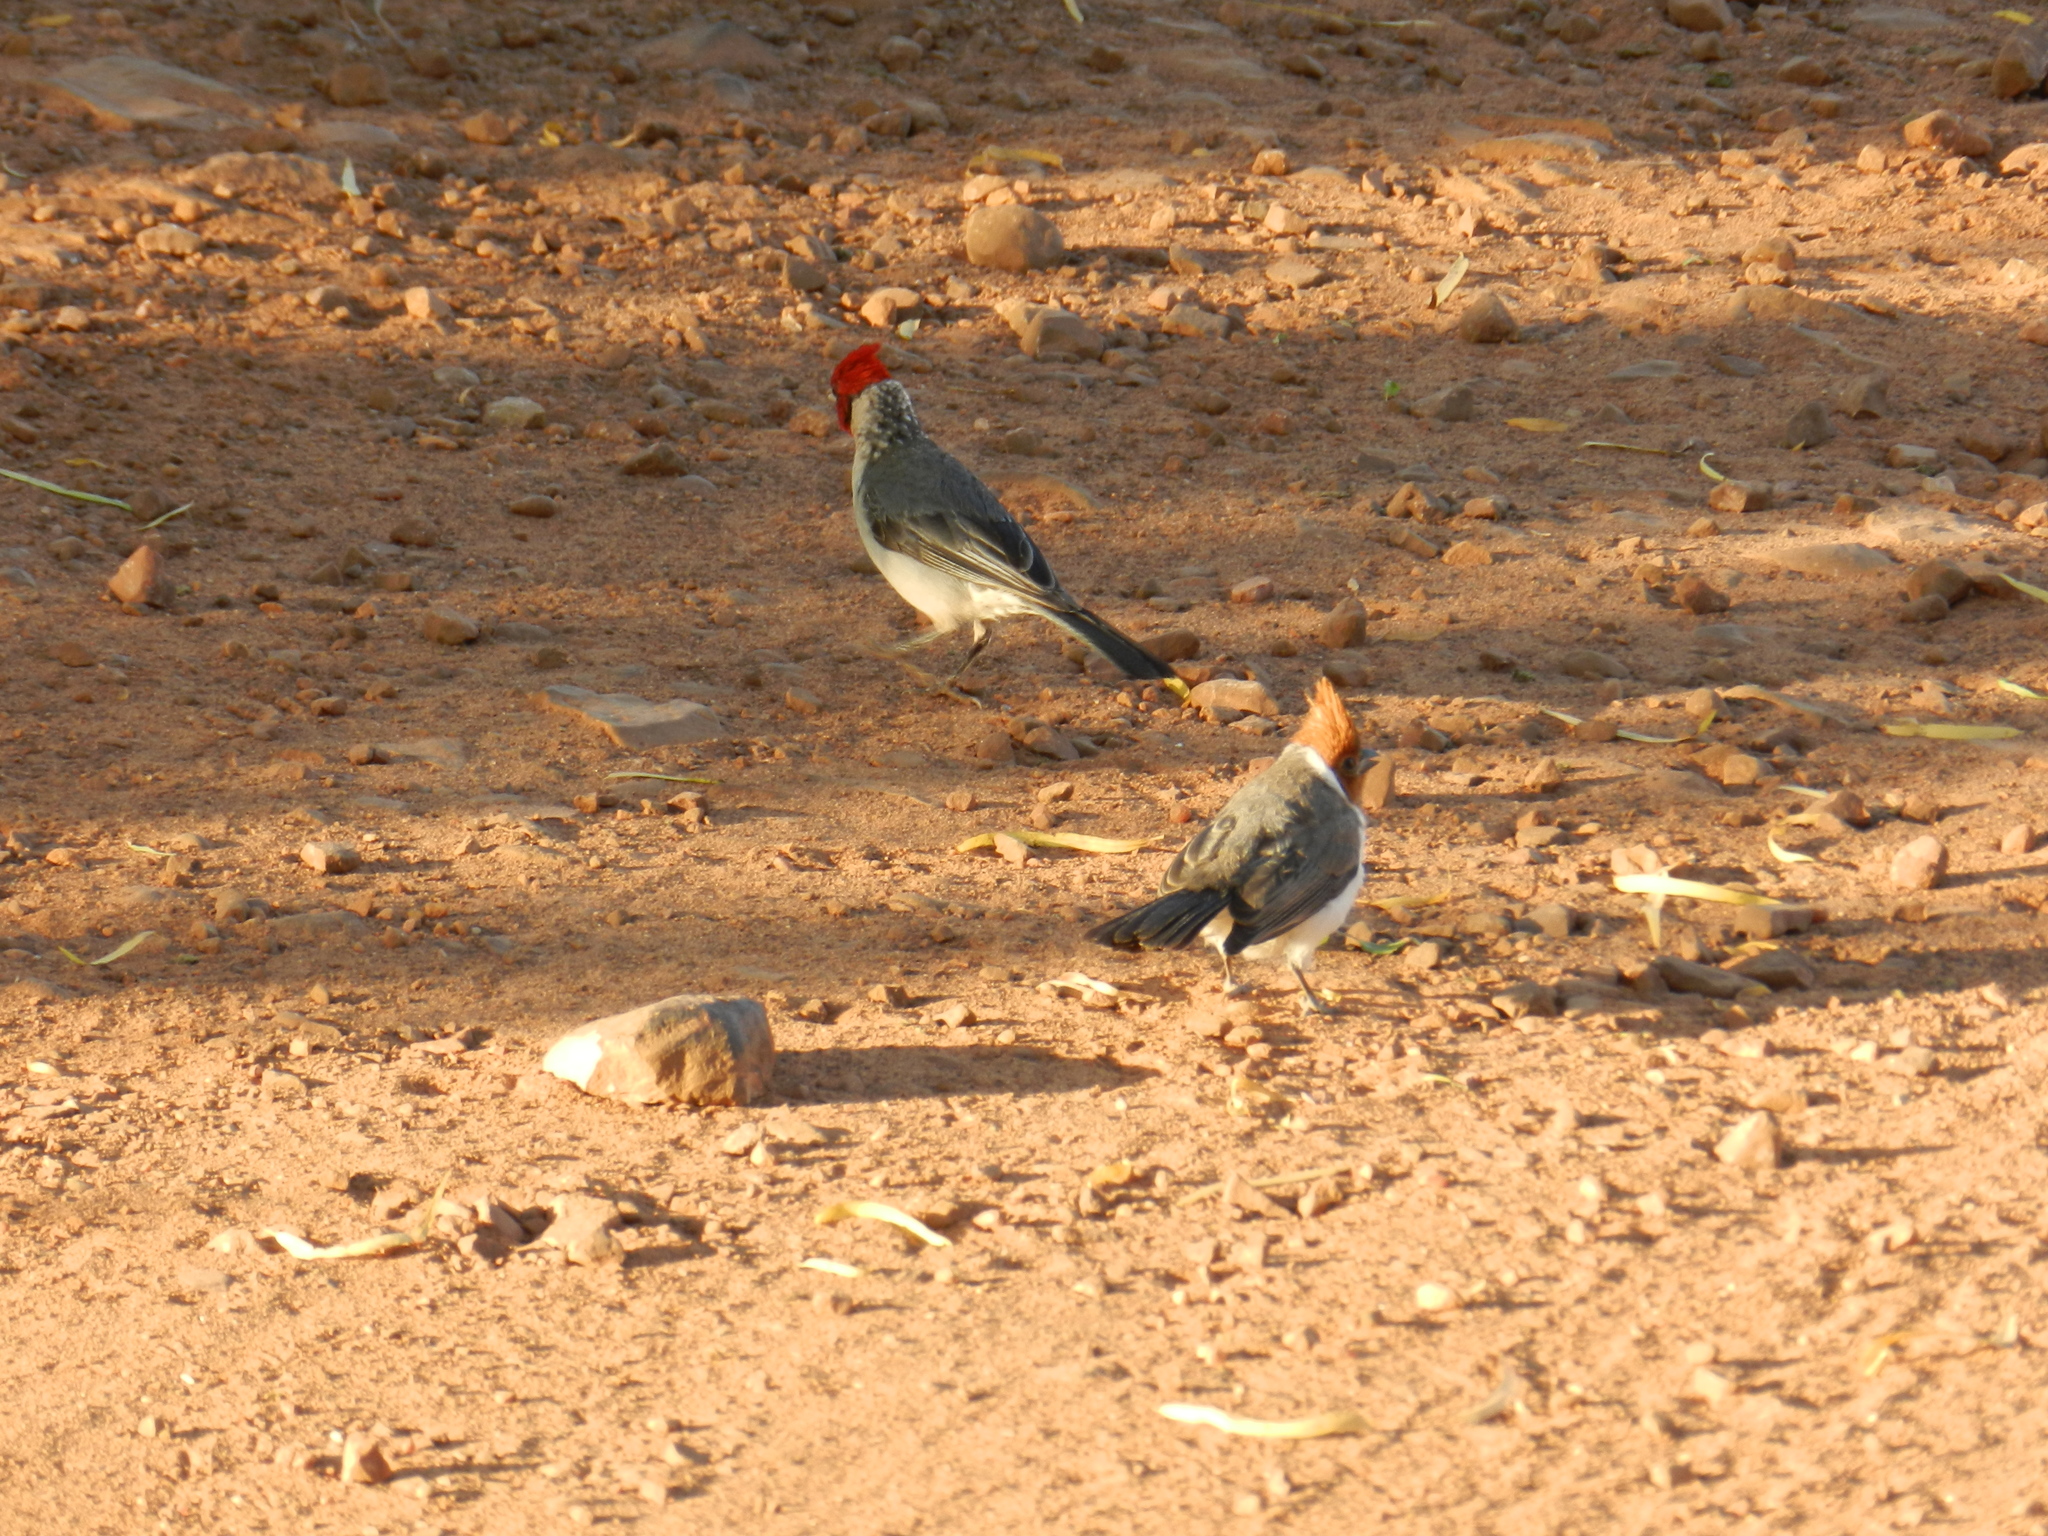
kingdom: Animalia
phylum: Chordata
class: Aves
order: Passeriformes
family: Thraupidae
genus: Paroaria
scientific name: Paroaria coronata
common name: Red-crested cardinal
